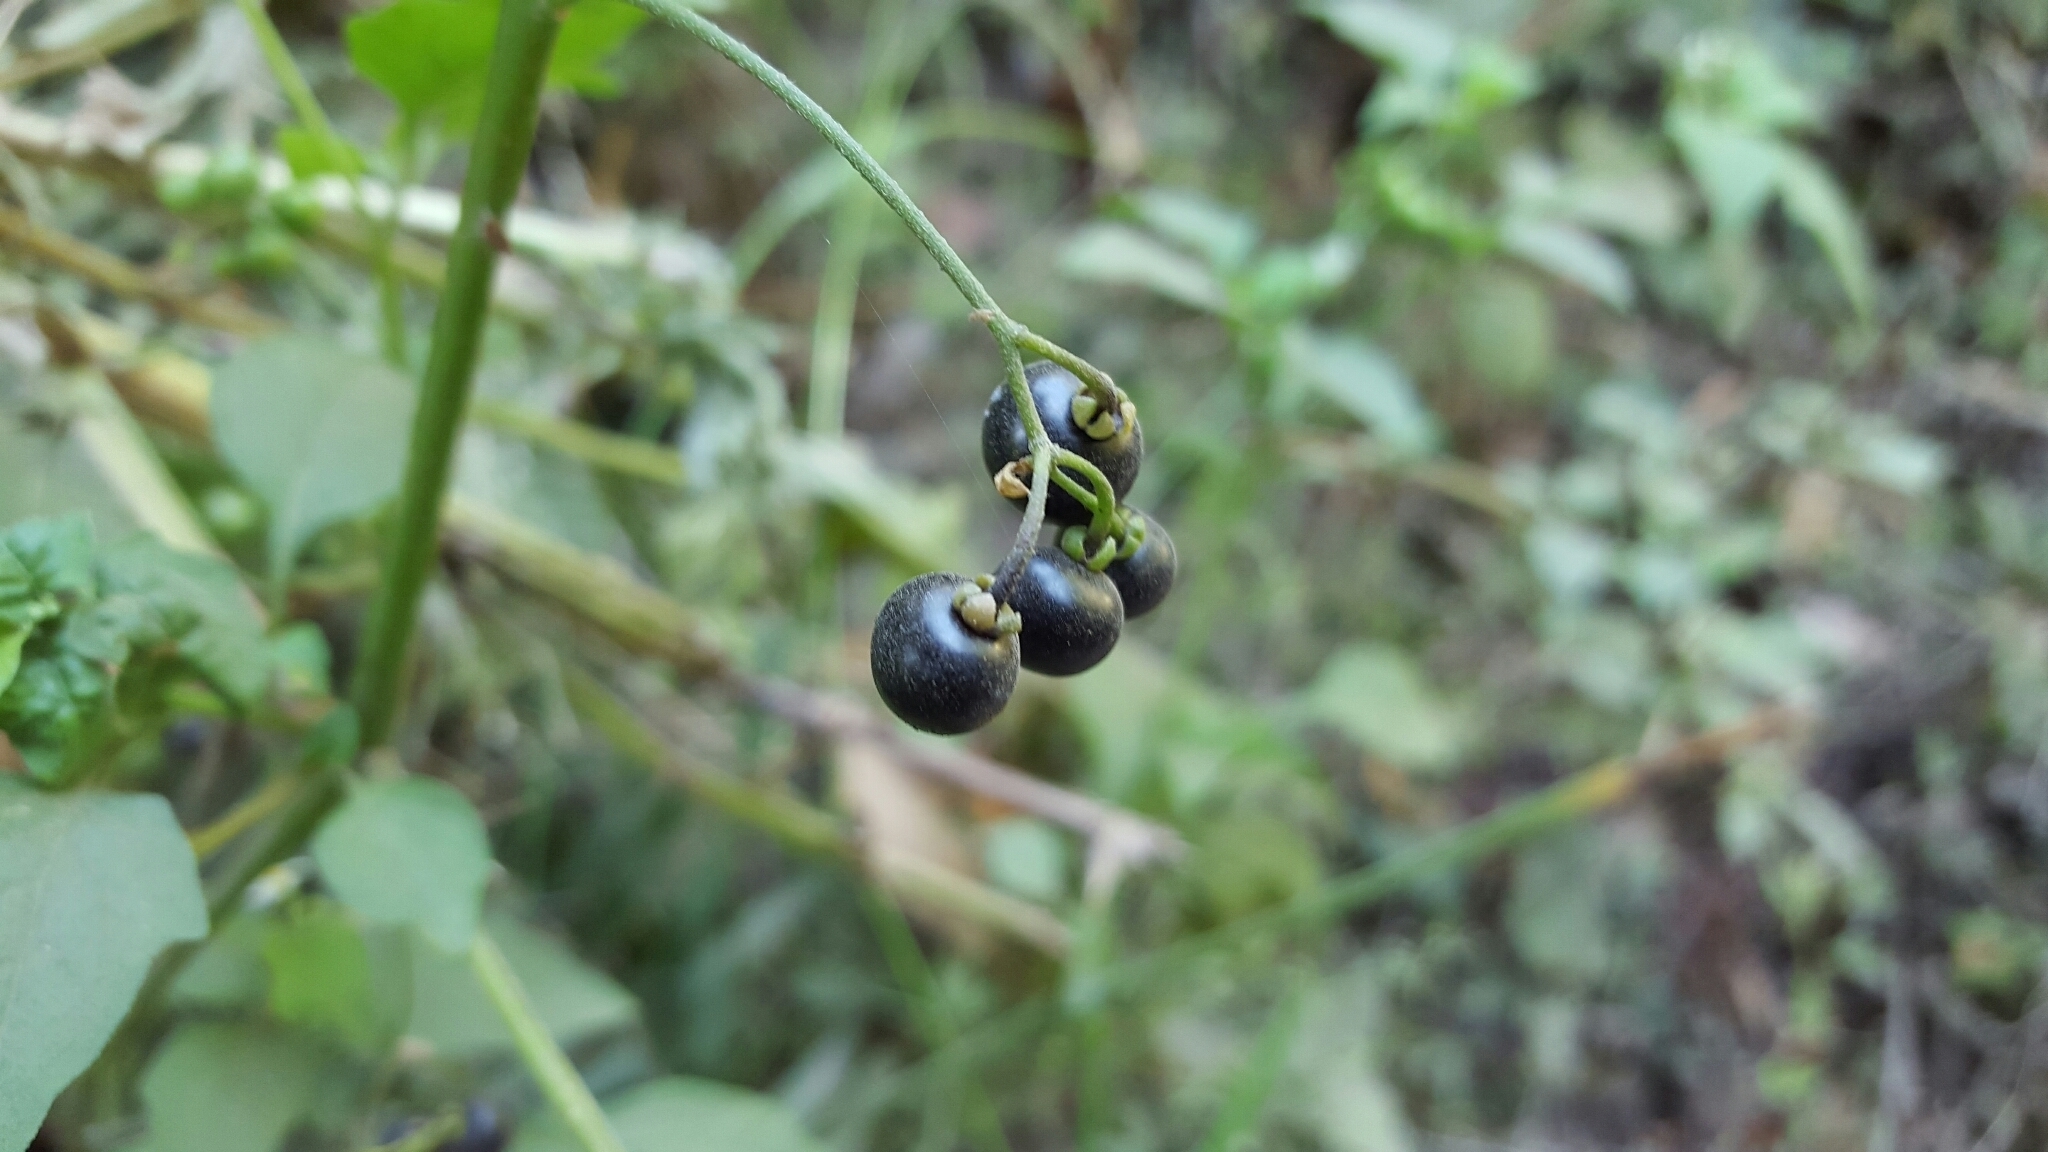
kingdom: Plantae
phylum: Tracheophyta
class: Magnoliopsida
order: Solanales
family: Solanaceae
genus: Solanum
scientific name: Solanum americanum
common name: American black nightshade
